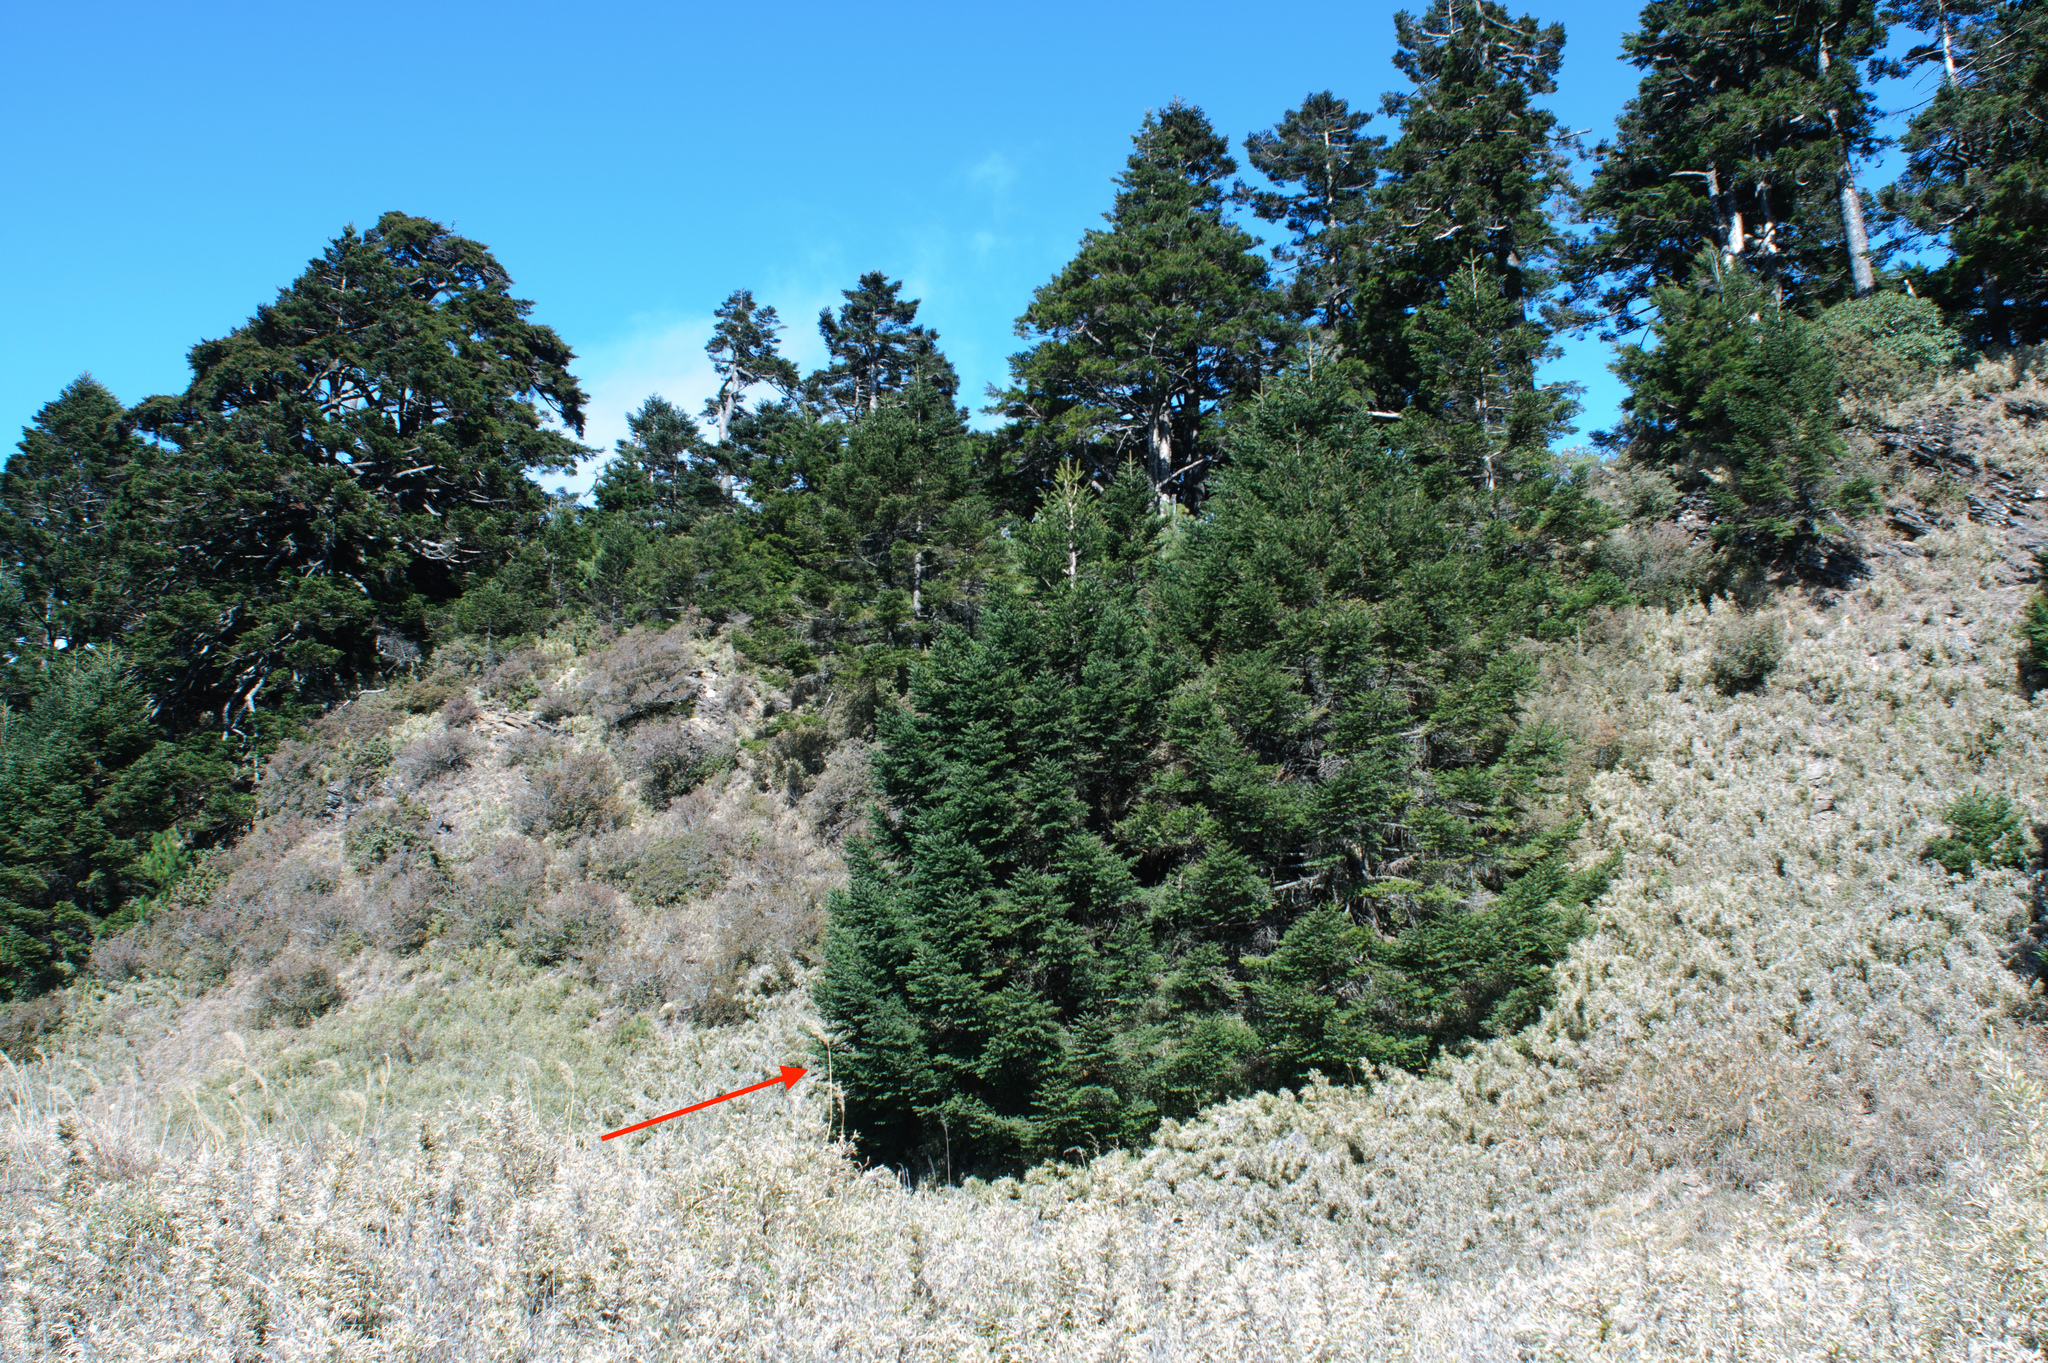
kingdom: Plantae
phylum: Tracheophyta
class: Pinopsida
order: Pinales
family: Pinaceae
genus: Abies
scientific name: Abies kawakamii
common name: Taiwan fir
